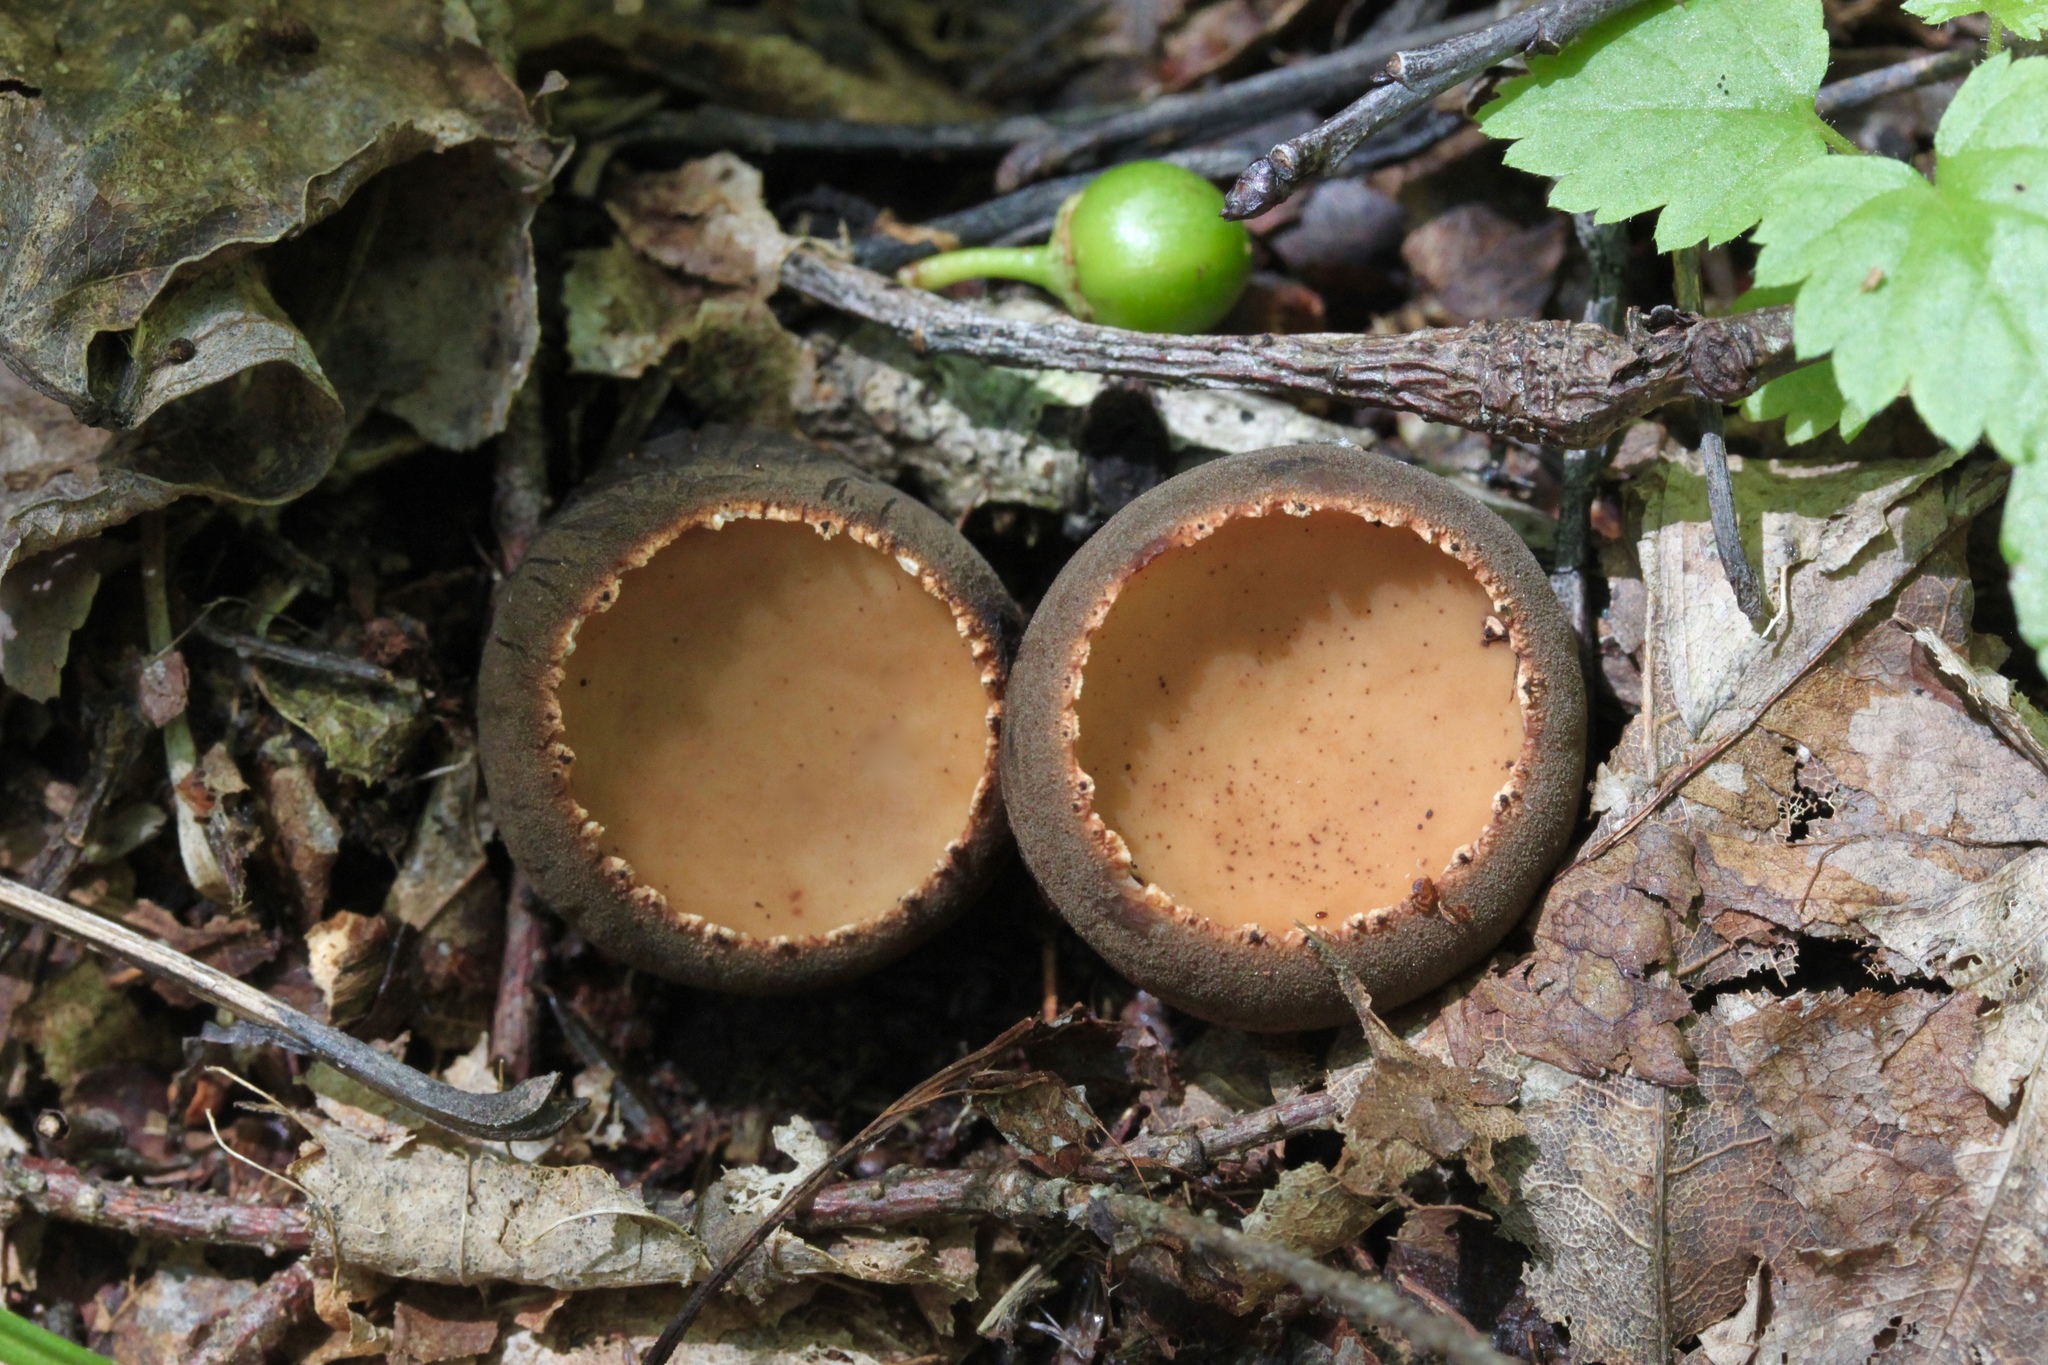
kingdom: Fungi
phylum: Ascomycota
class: Pezizomycetes
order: Pezizales
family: Sarcosomataceae
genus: Galiella
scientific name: Galiella rufa
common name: Hairy rubber cup
